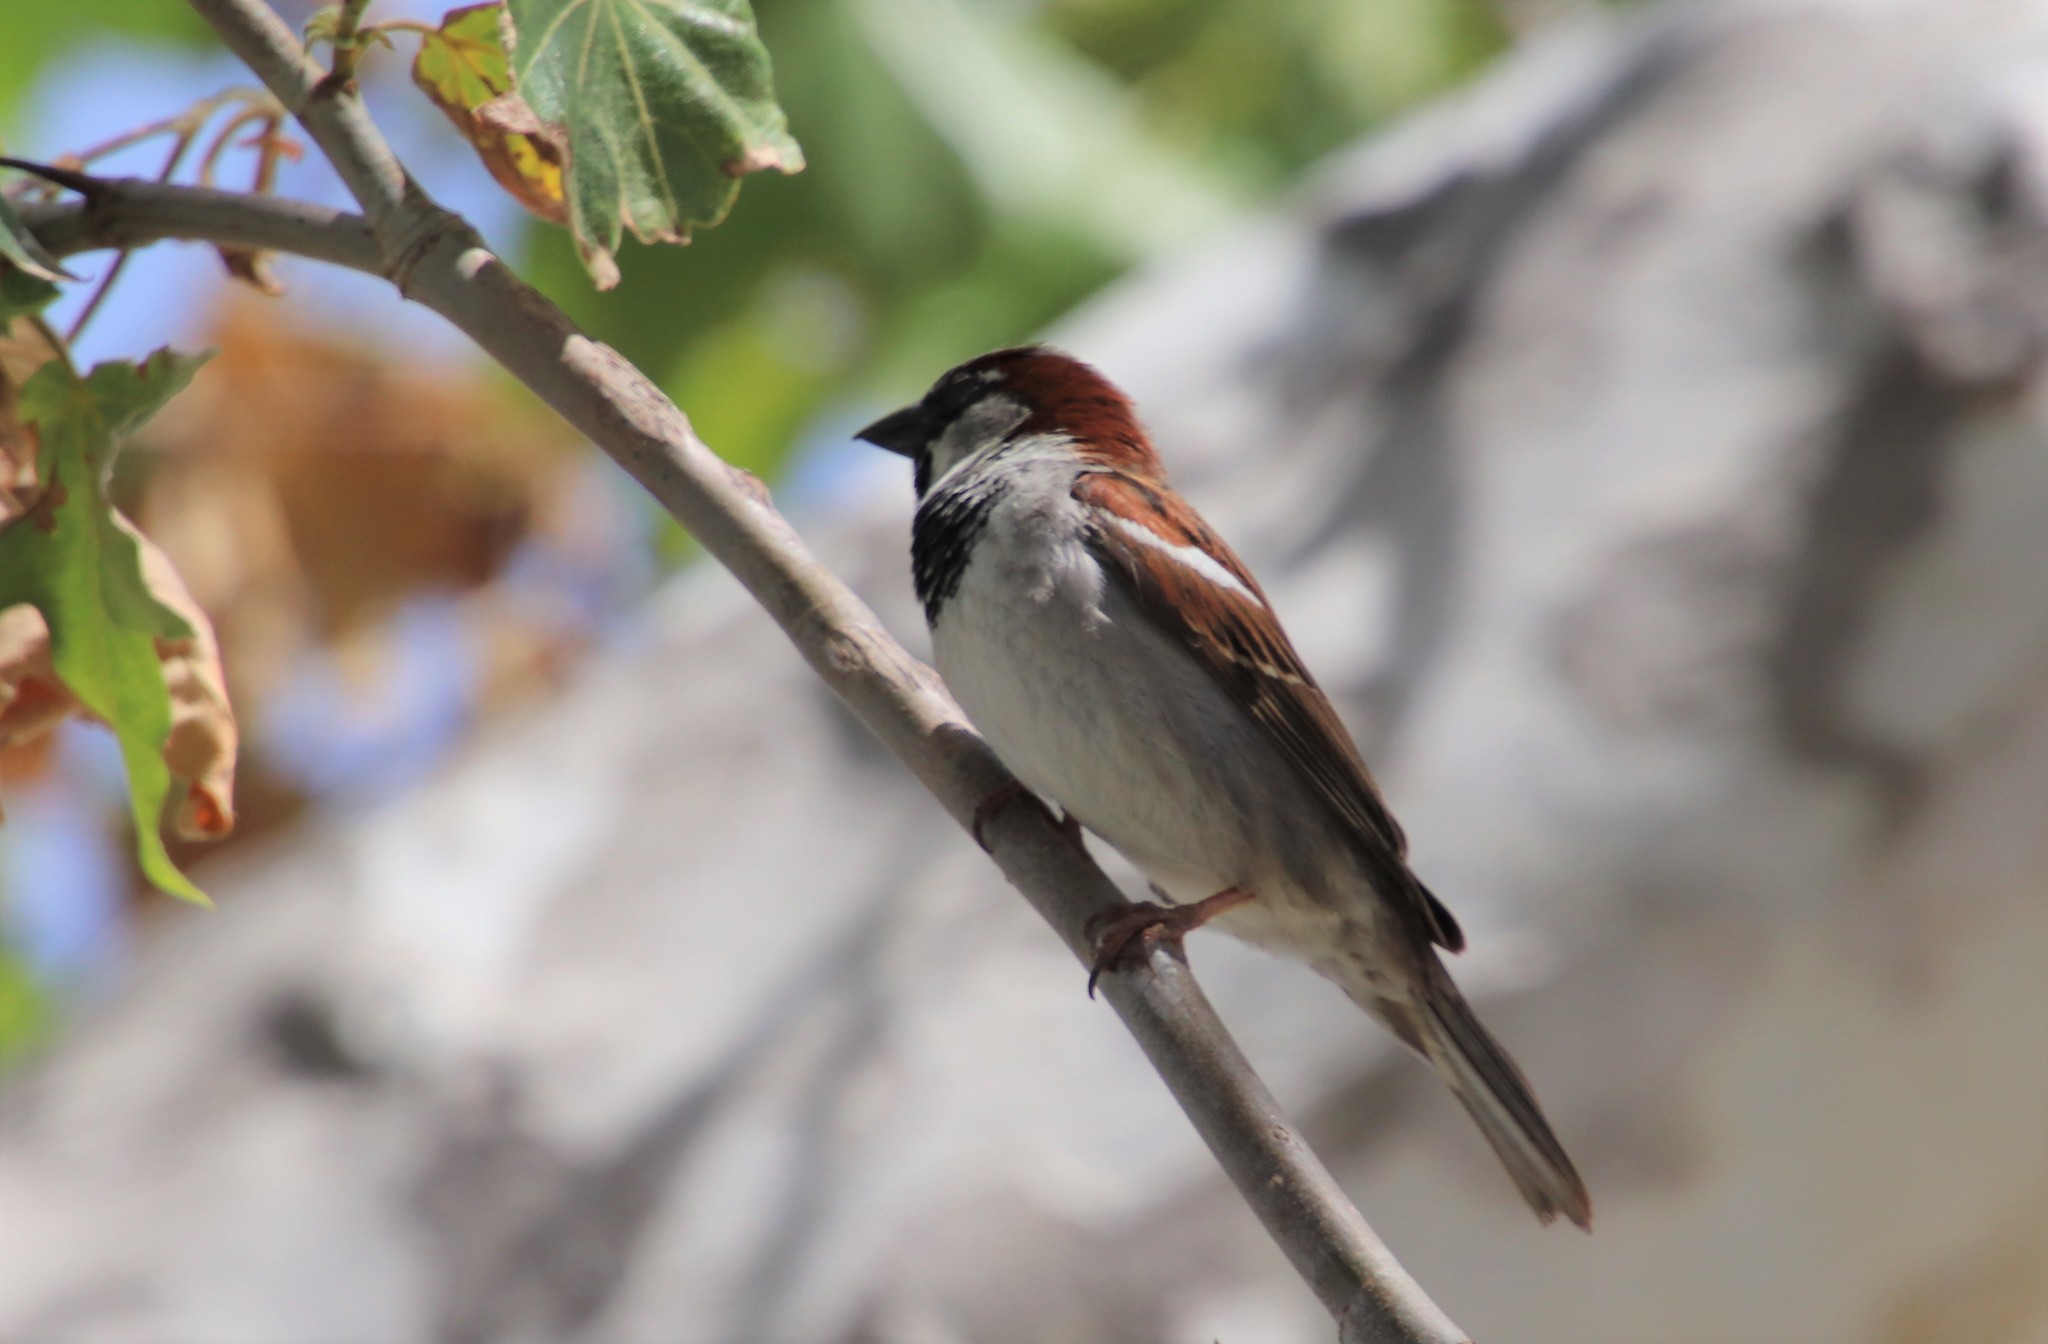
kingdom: Animalia
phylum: Chordata
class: Aves
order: Passeriformes
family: Passeridae
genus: Passer
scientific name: Passer domesticus
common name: House sparrow
